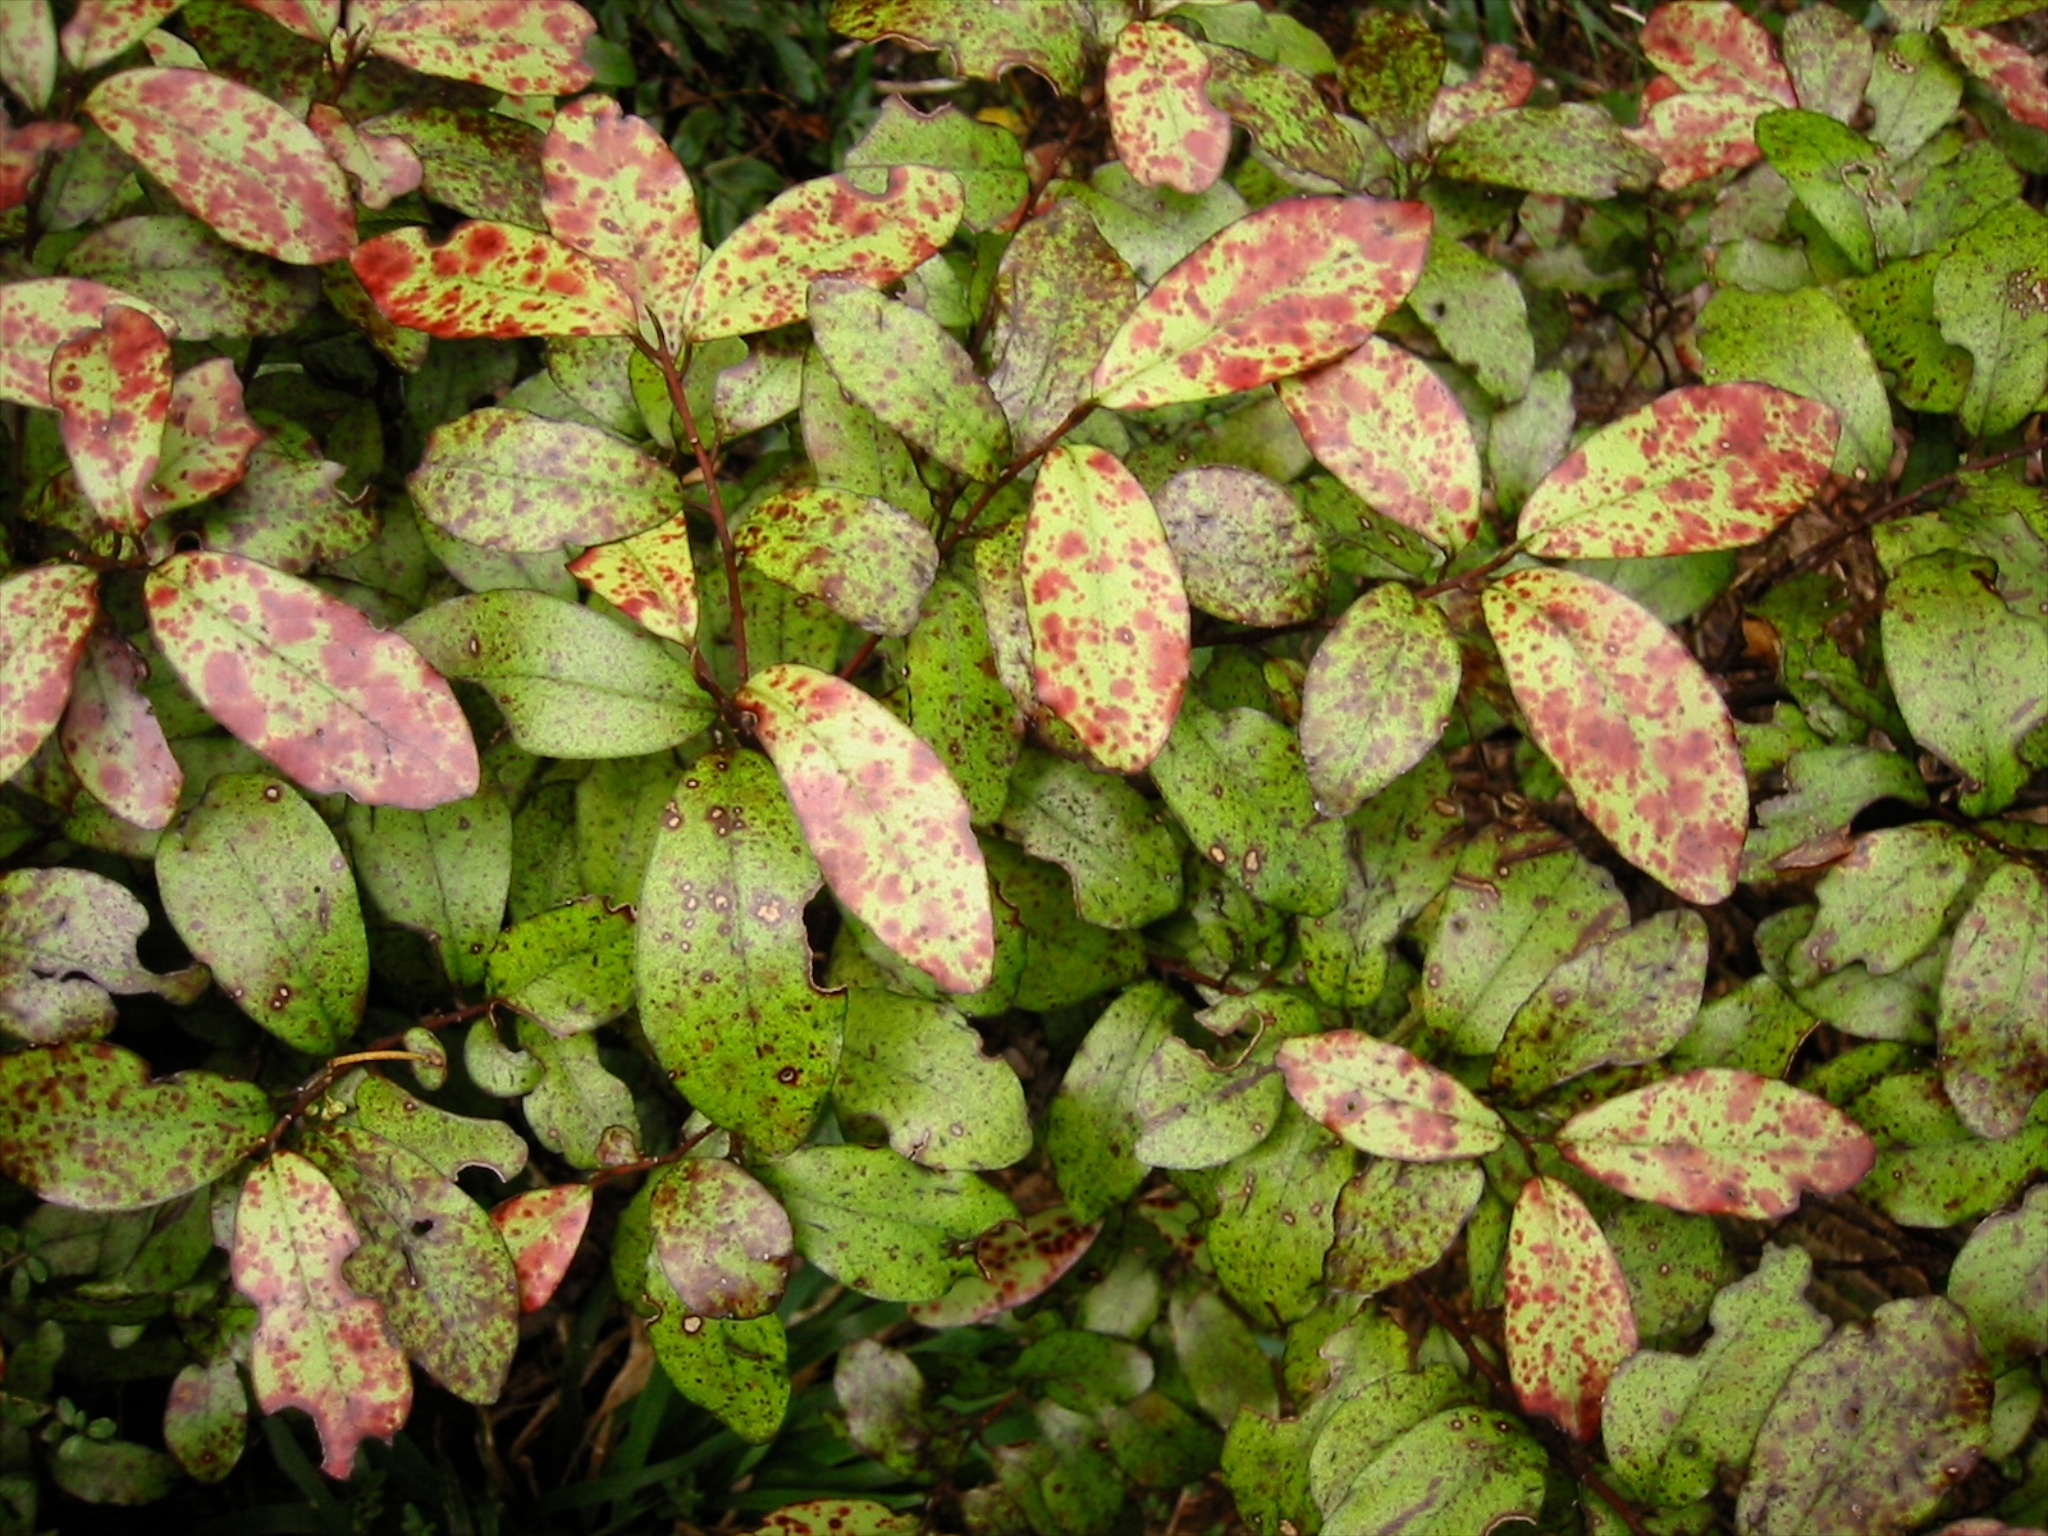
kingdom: Plantae
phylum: Tracheophyta
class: Magnoliopsida
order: Canellales
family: Winteraceae
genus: Pseudowintera
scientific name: Pseudowintera colorata
